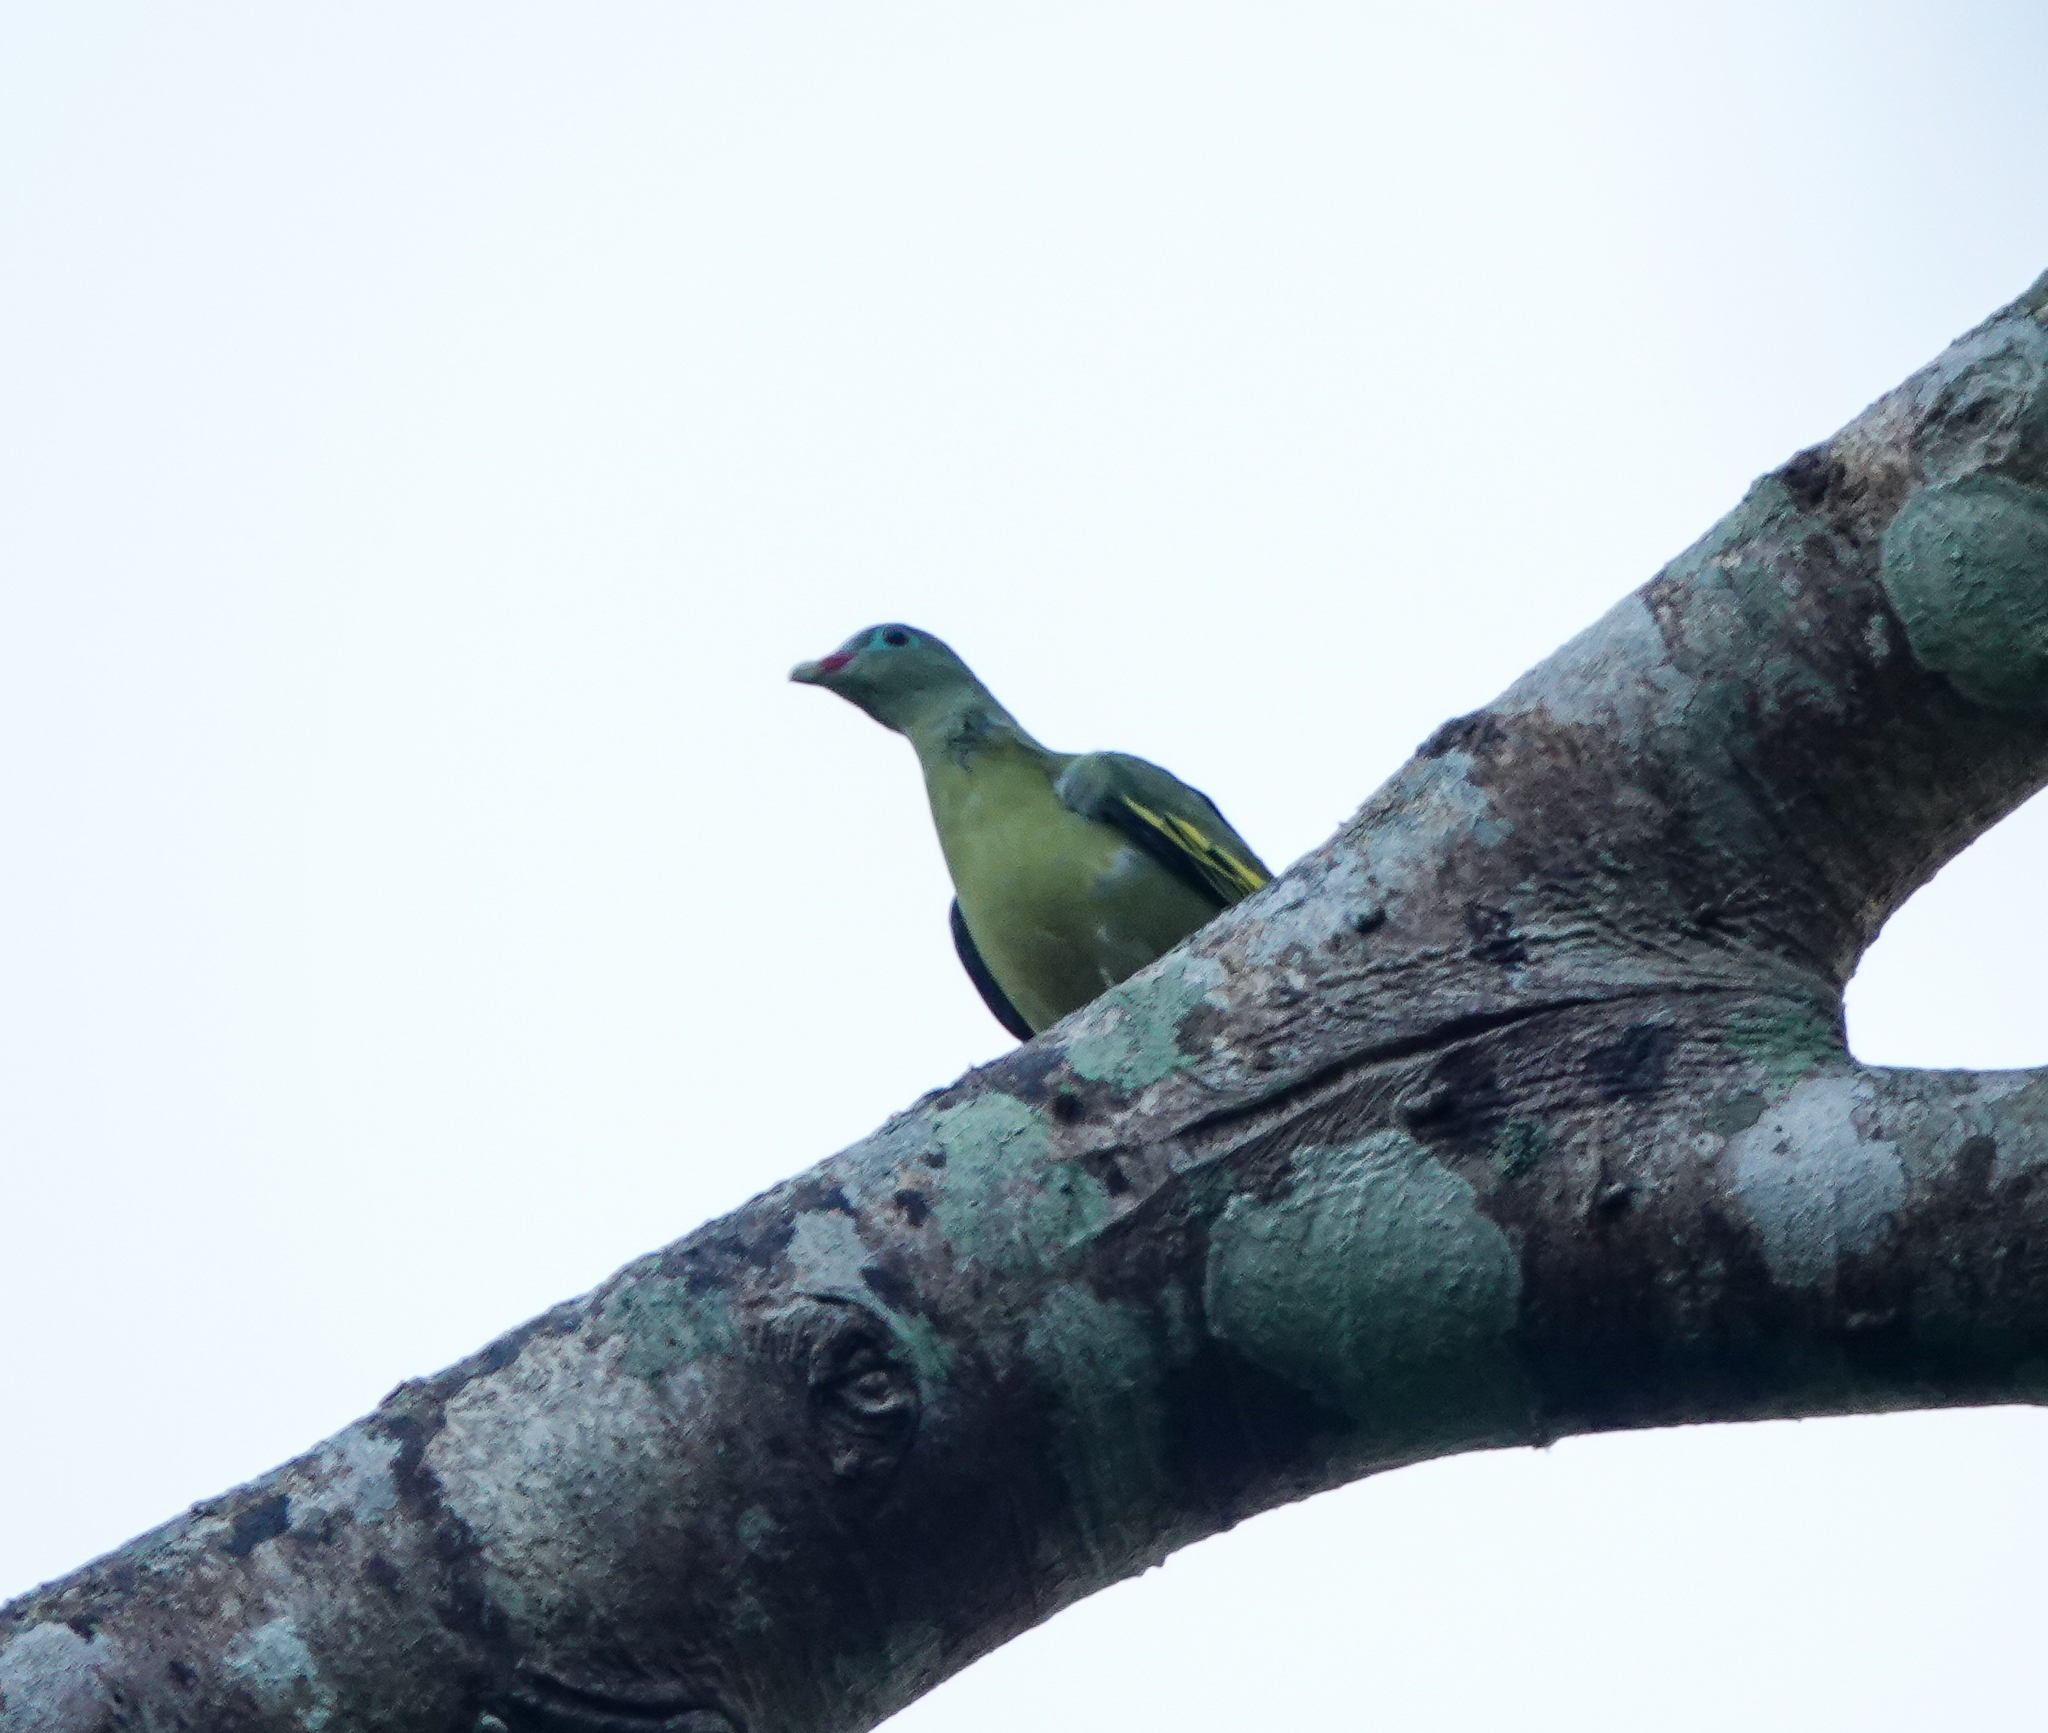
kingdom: Animalia
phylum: Chordata
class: Aves
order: Columbiformes
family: Columbidae
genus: Treron
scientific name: Treron curvirostra
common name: Thick-billed green pigeon
